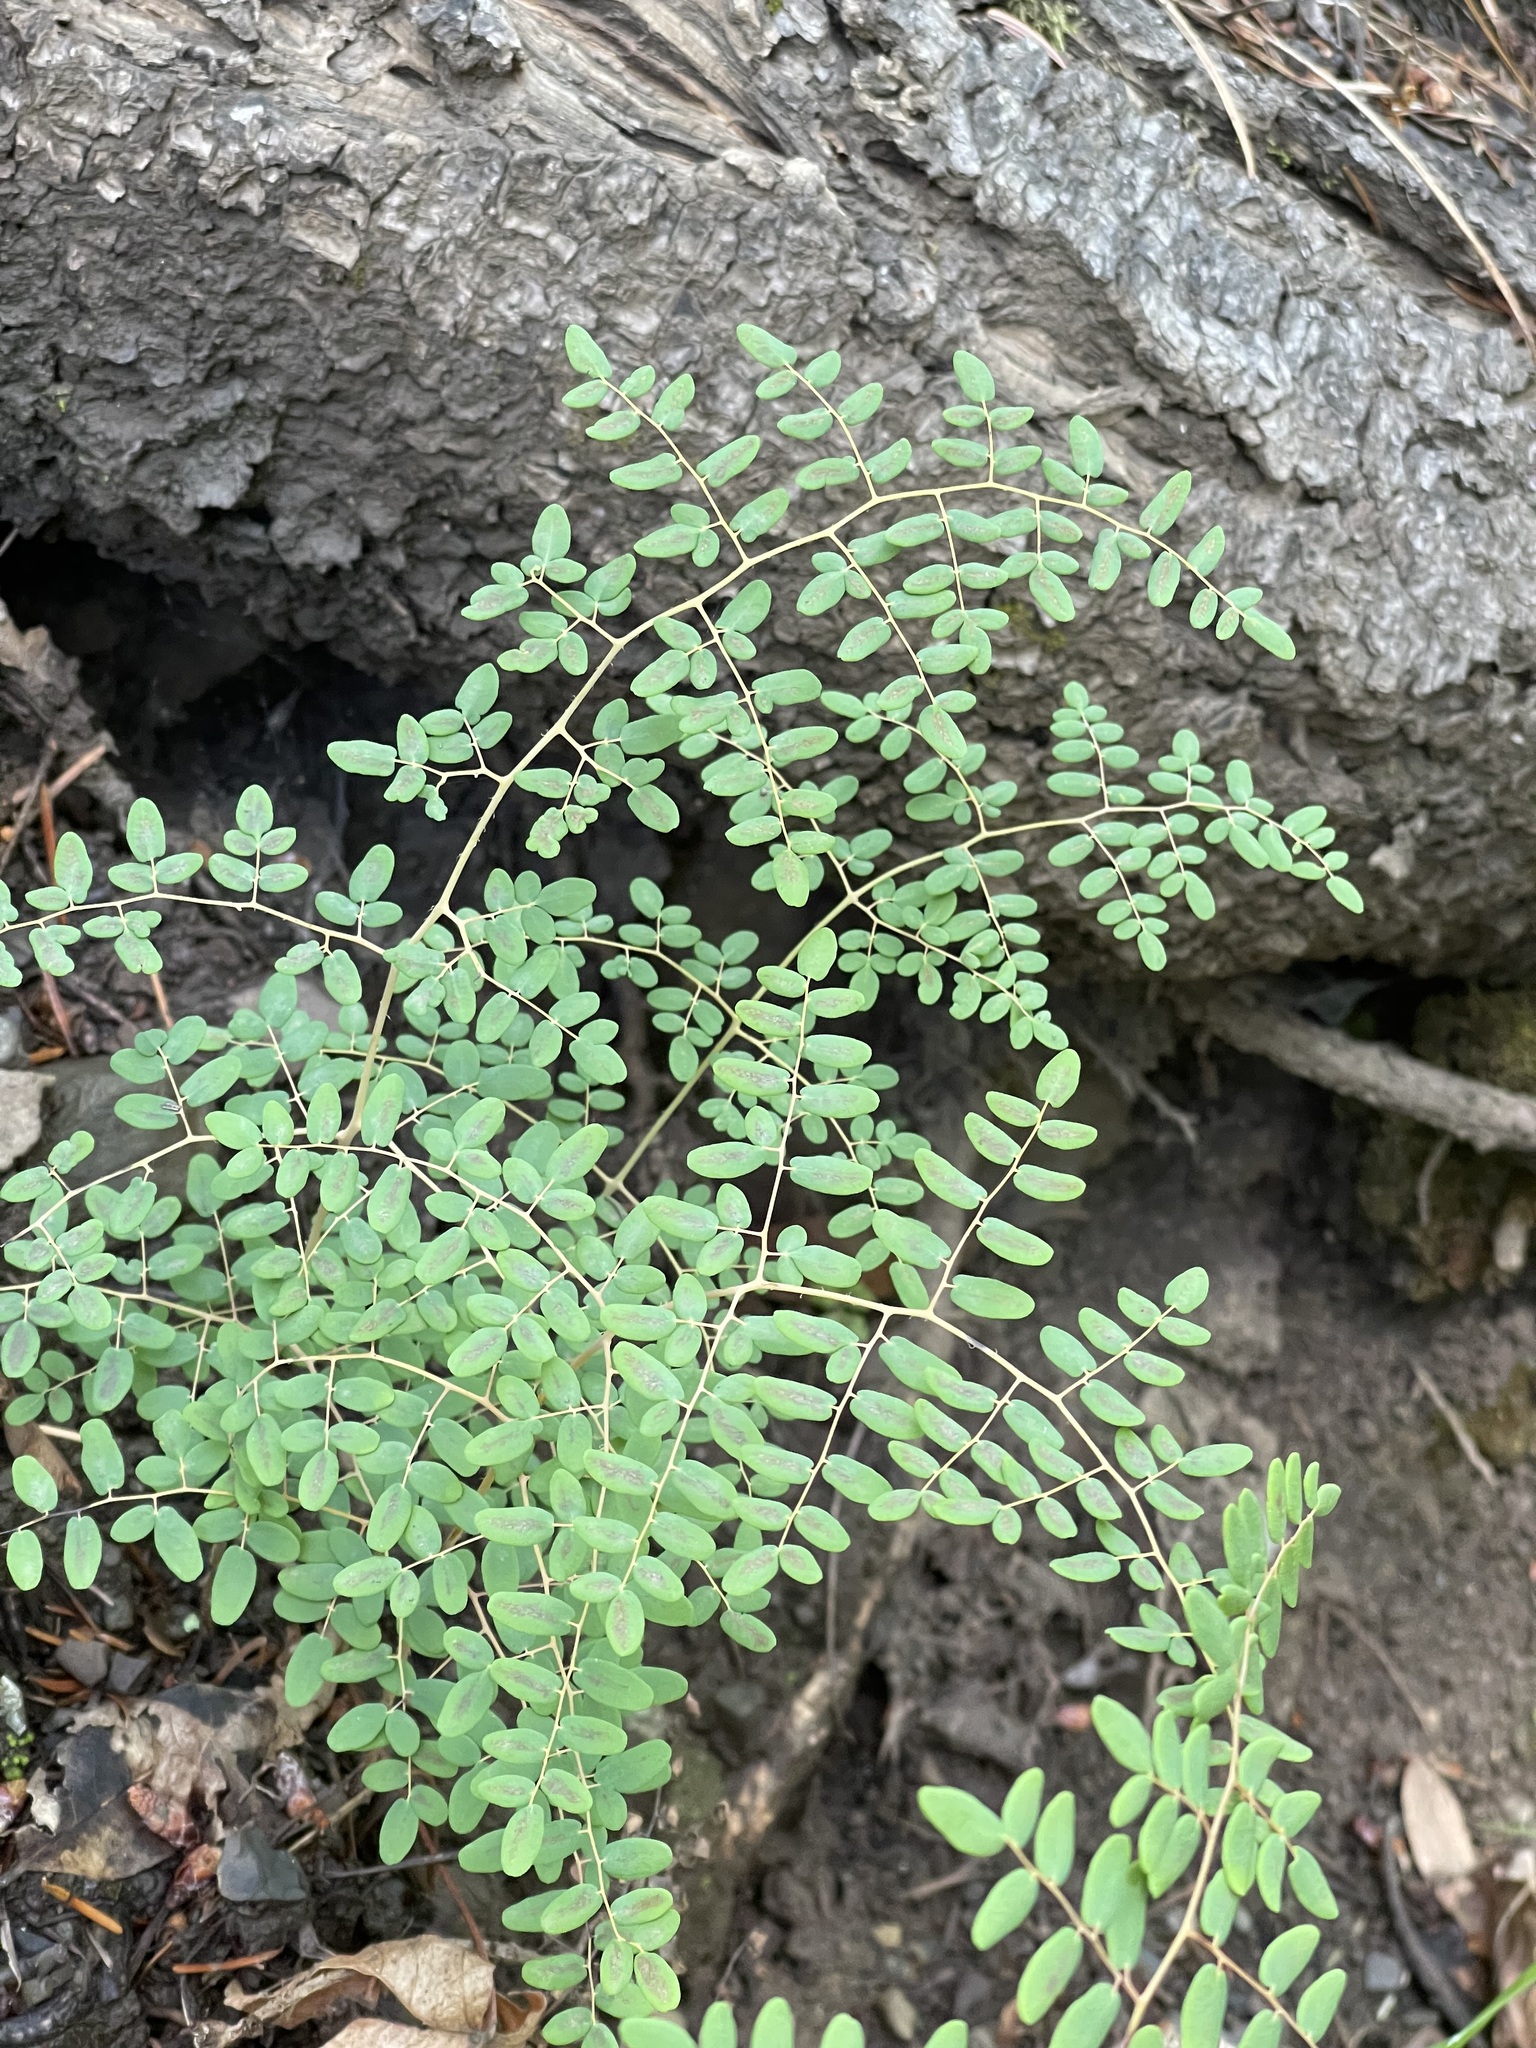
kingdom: Plantae
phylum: Tracheophyta
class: Polypodiopsida
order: Polypodiales
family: Pteridaceae
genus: Pellaea
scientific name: Pellaea andromedifolia
